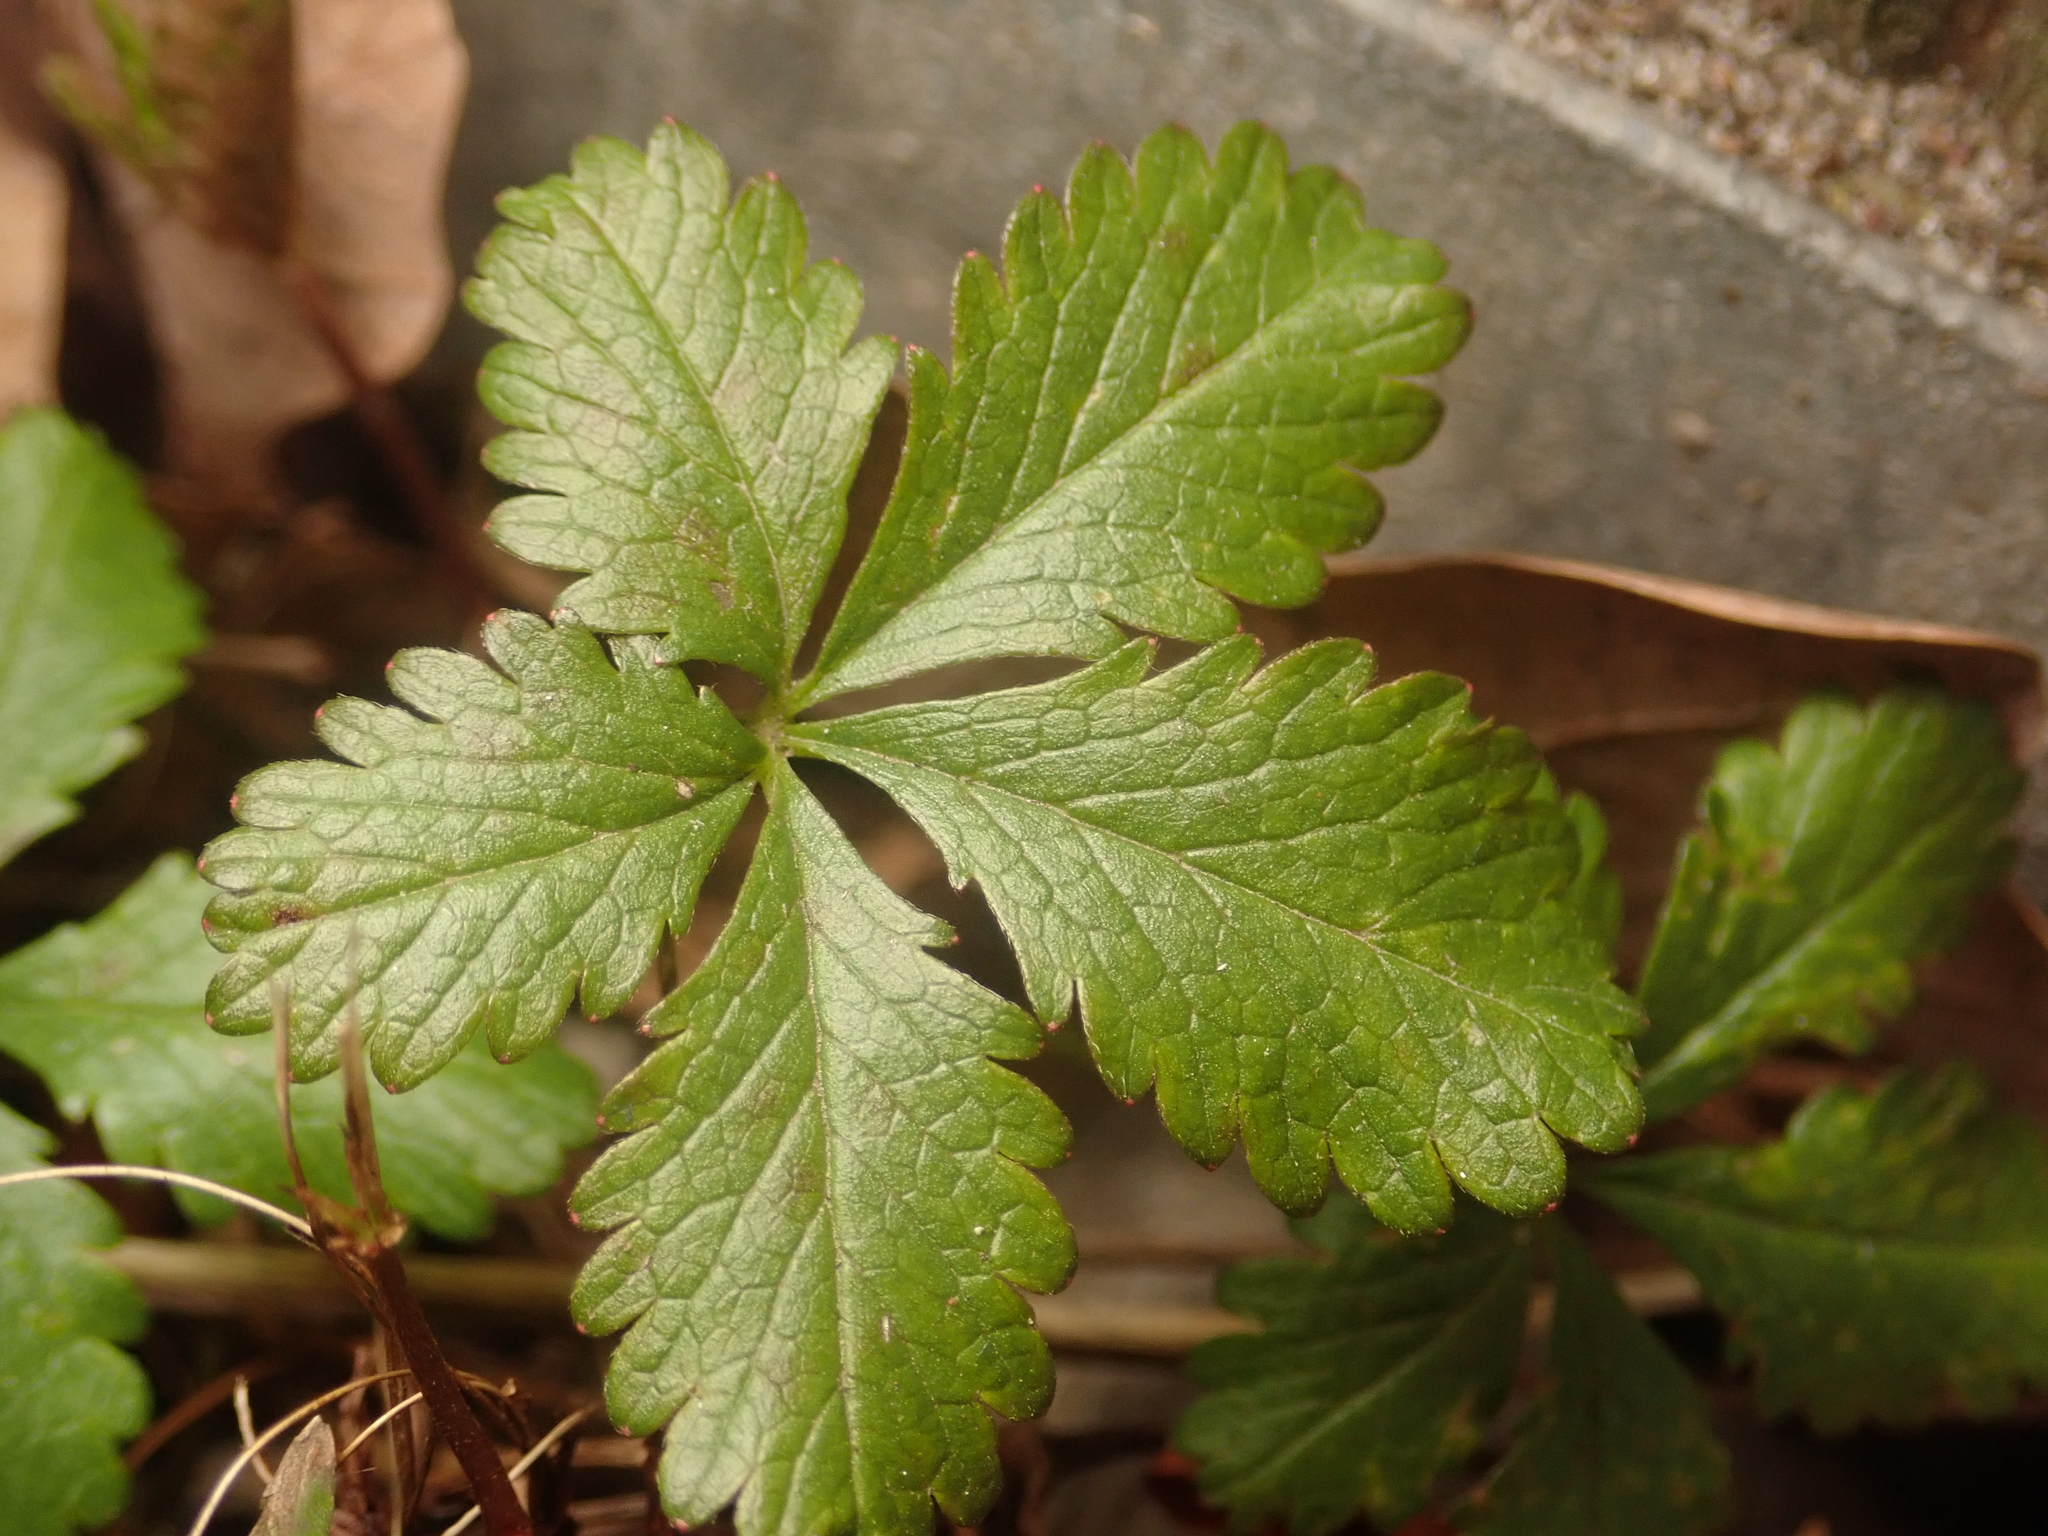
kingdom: Plantae
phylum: Tracheophyta
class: Magnoliopsida
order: Rosales
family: Rosaceae
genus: Potentilla
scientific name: Potentilla reptans
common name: Creeping cinquefoil
